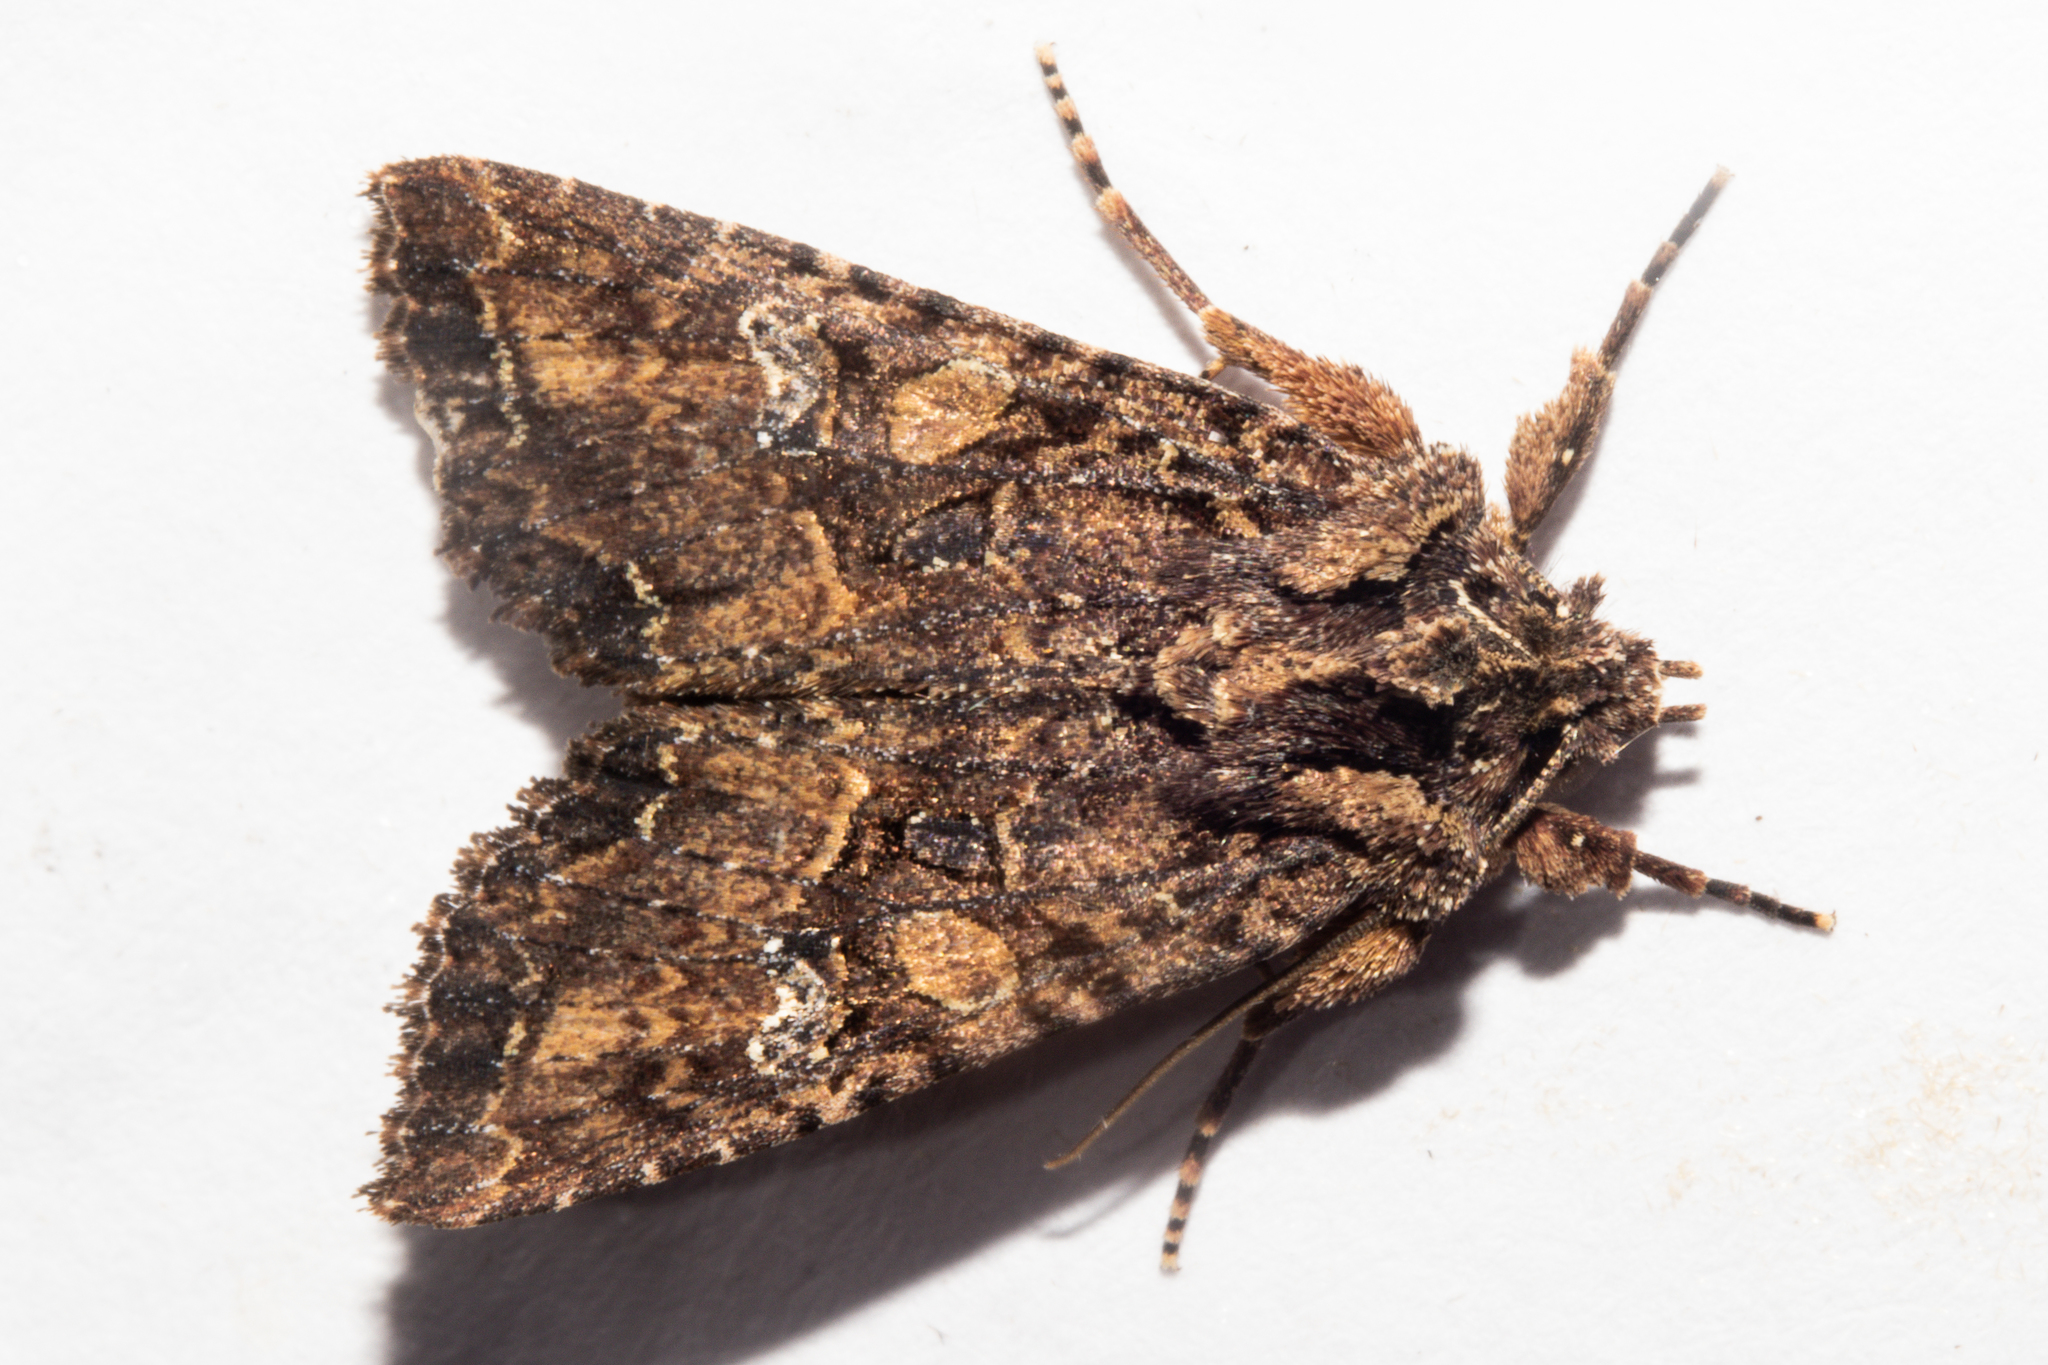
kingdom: Animalia
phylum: Arthropoda
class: Insecta
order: Lepidoptera
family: Noctuidae
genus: Meterana
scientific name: Meterana ochthistis
